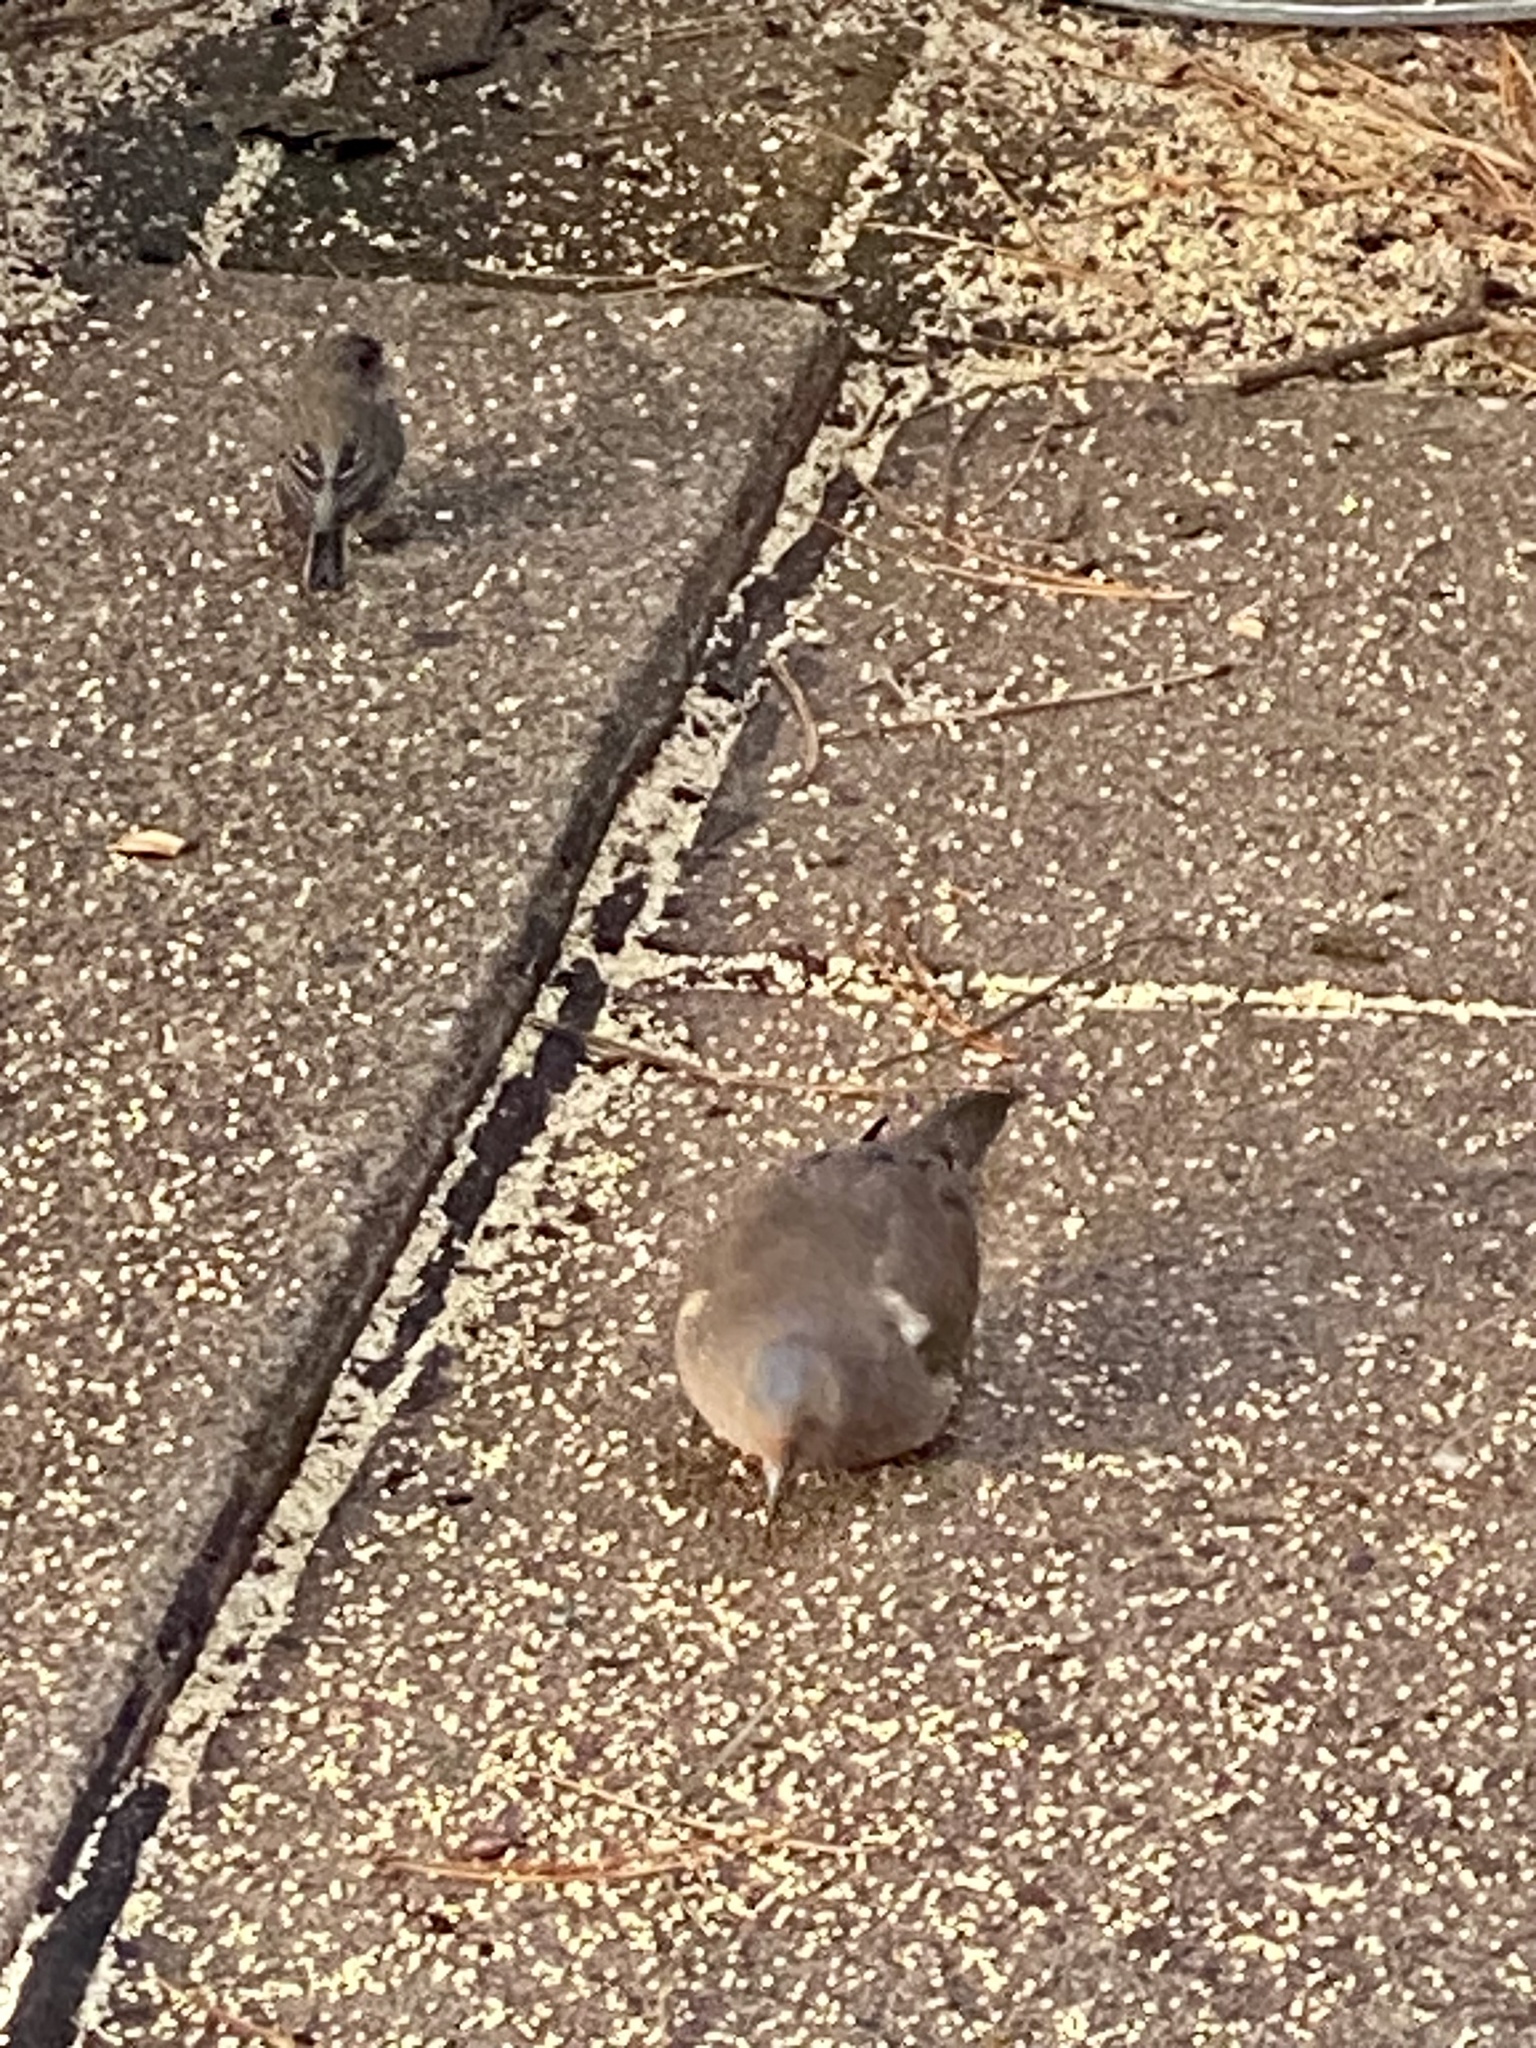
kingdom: Animalia
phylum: Chordata
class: Aves
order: Columbiformes
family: Columbidae
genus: Zenaida
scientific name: Zenaida macroura
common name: Mourning dove
